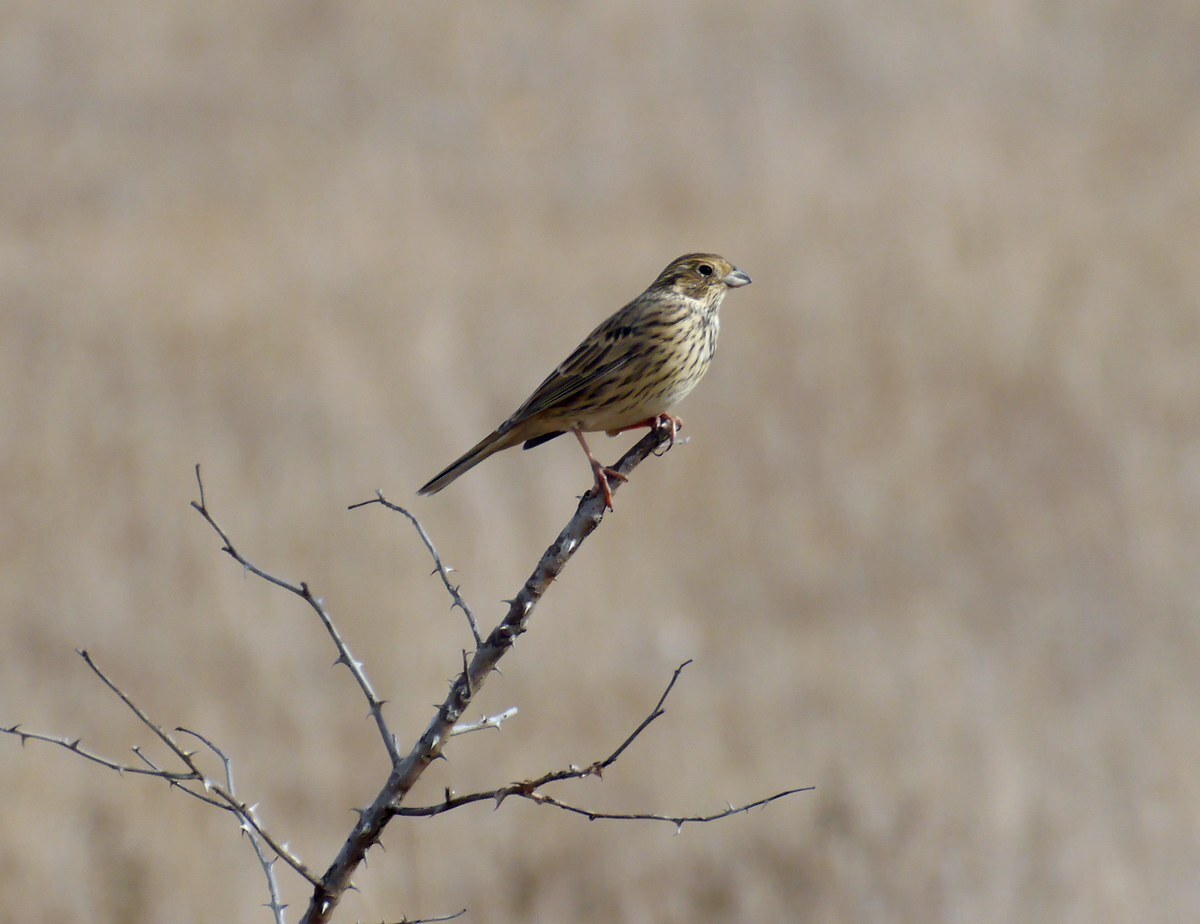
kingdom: Animalia
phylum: Chordata
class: Aves
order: Passeriformes
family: Emberizidae
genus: Emberiza
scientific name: Emberiza calandra
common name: Corn bunting
